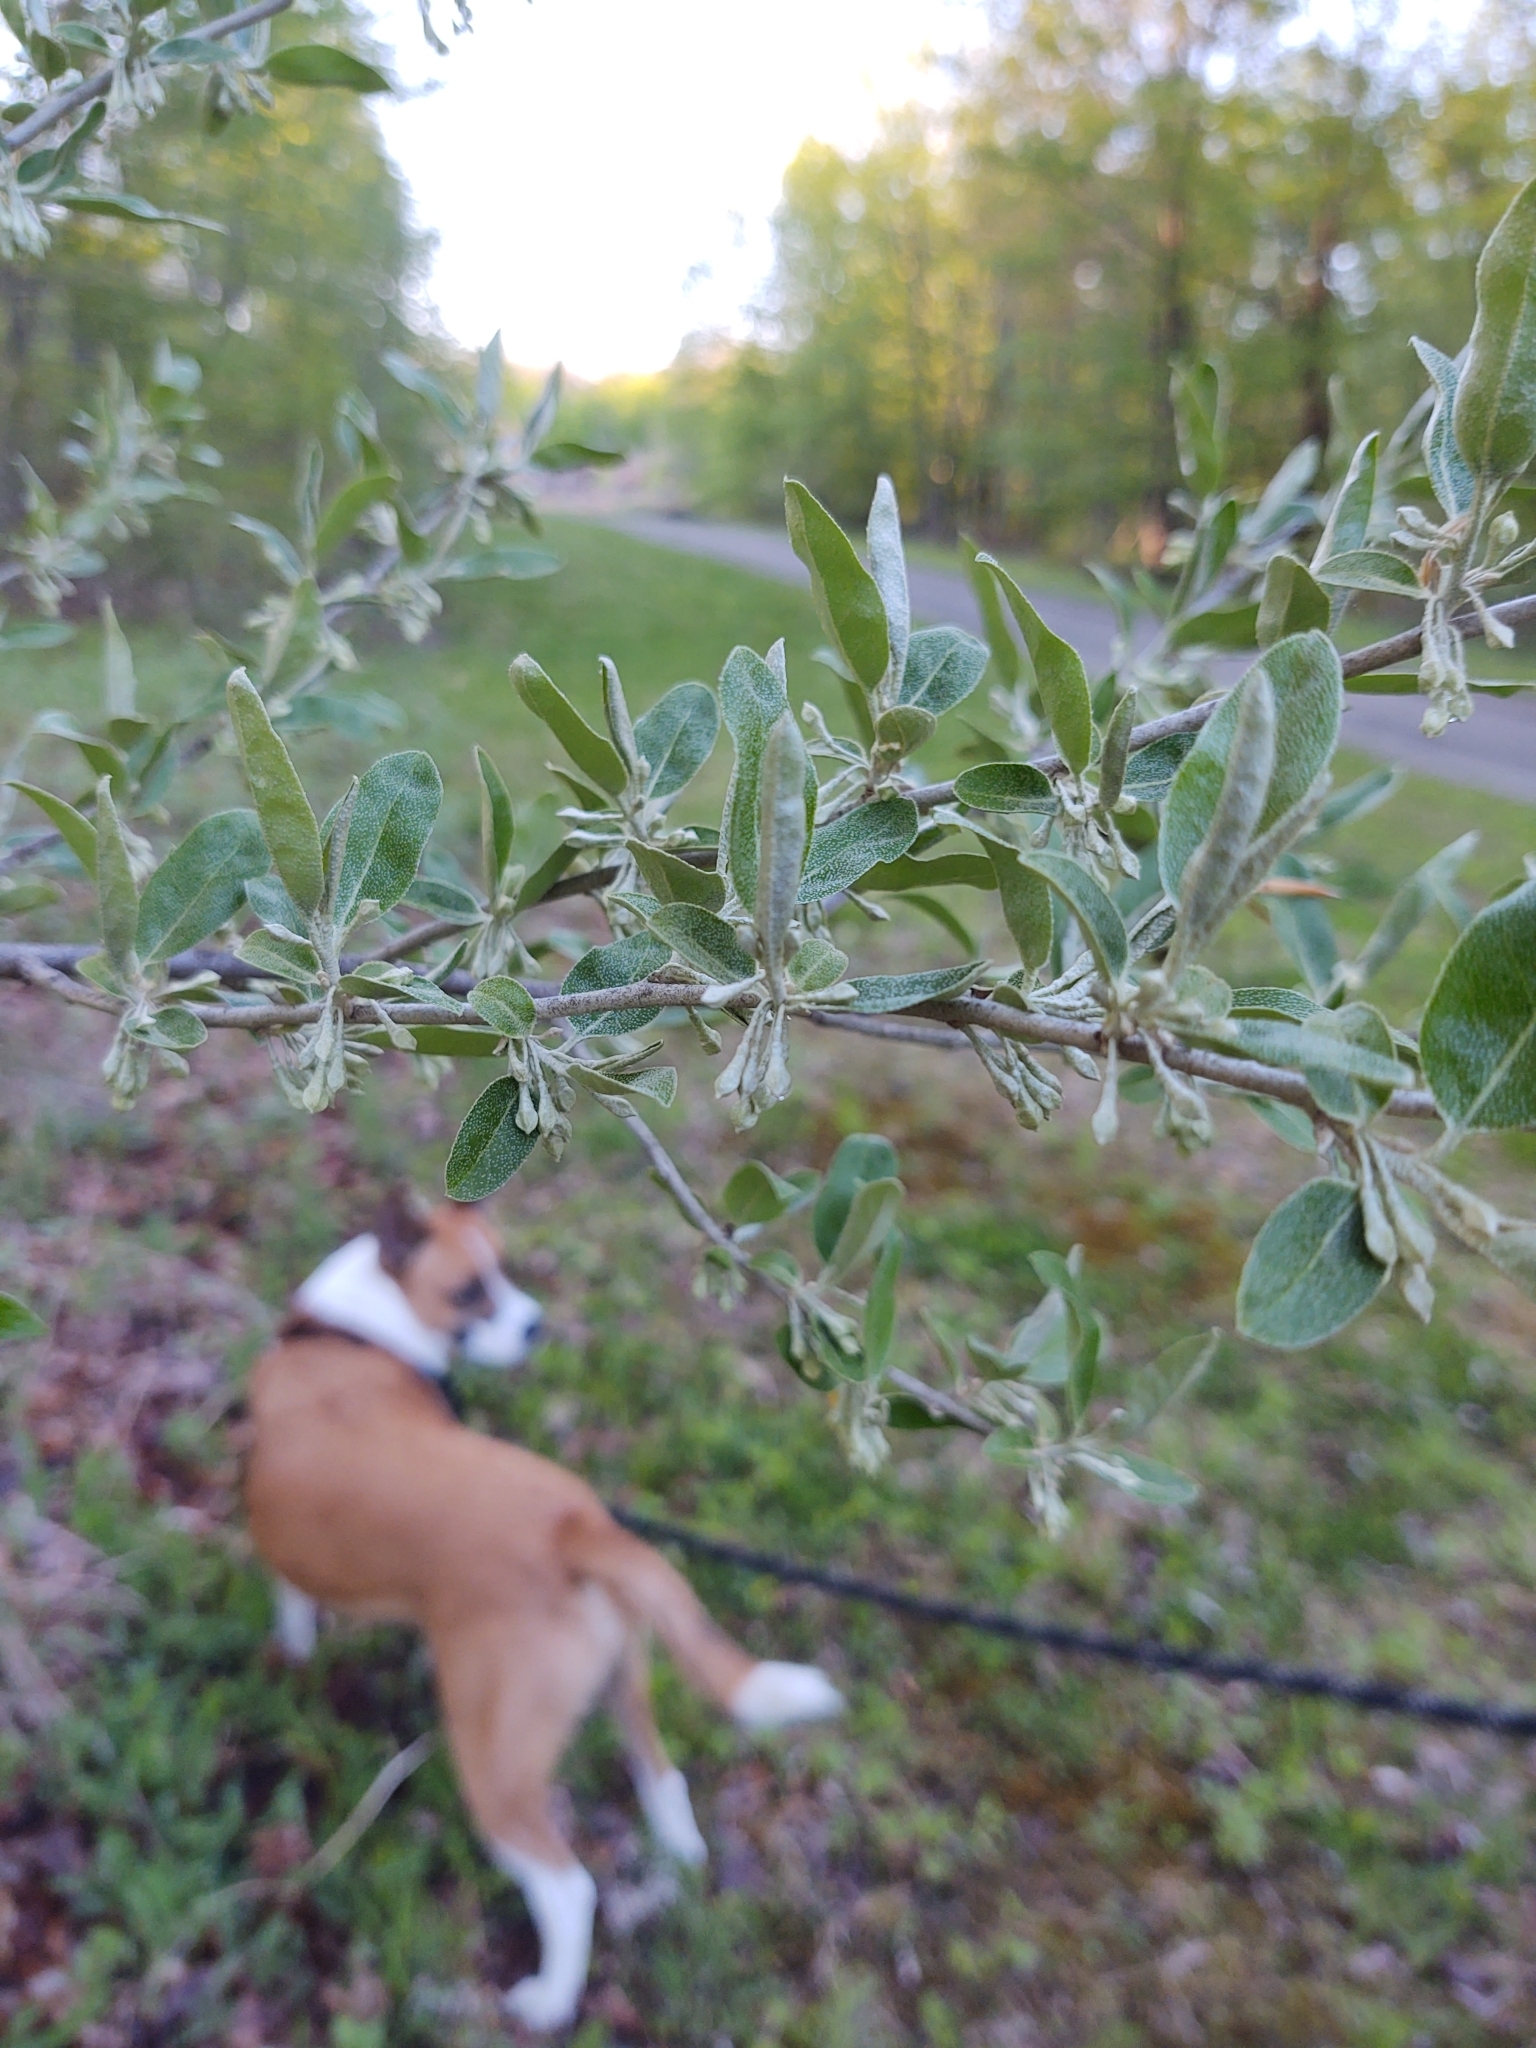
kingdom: Plantae
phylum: Tracheophyta
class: Magnoliopsida
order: Rosales
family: Elaeagnaceae
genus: Elaeagnus
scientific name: Elaeagnus umbellata
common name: Autumn olive
